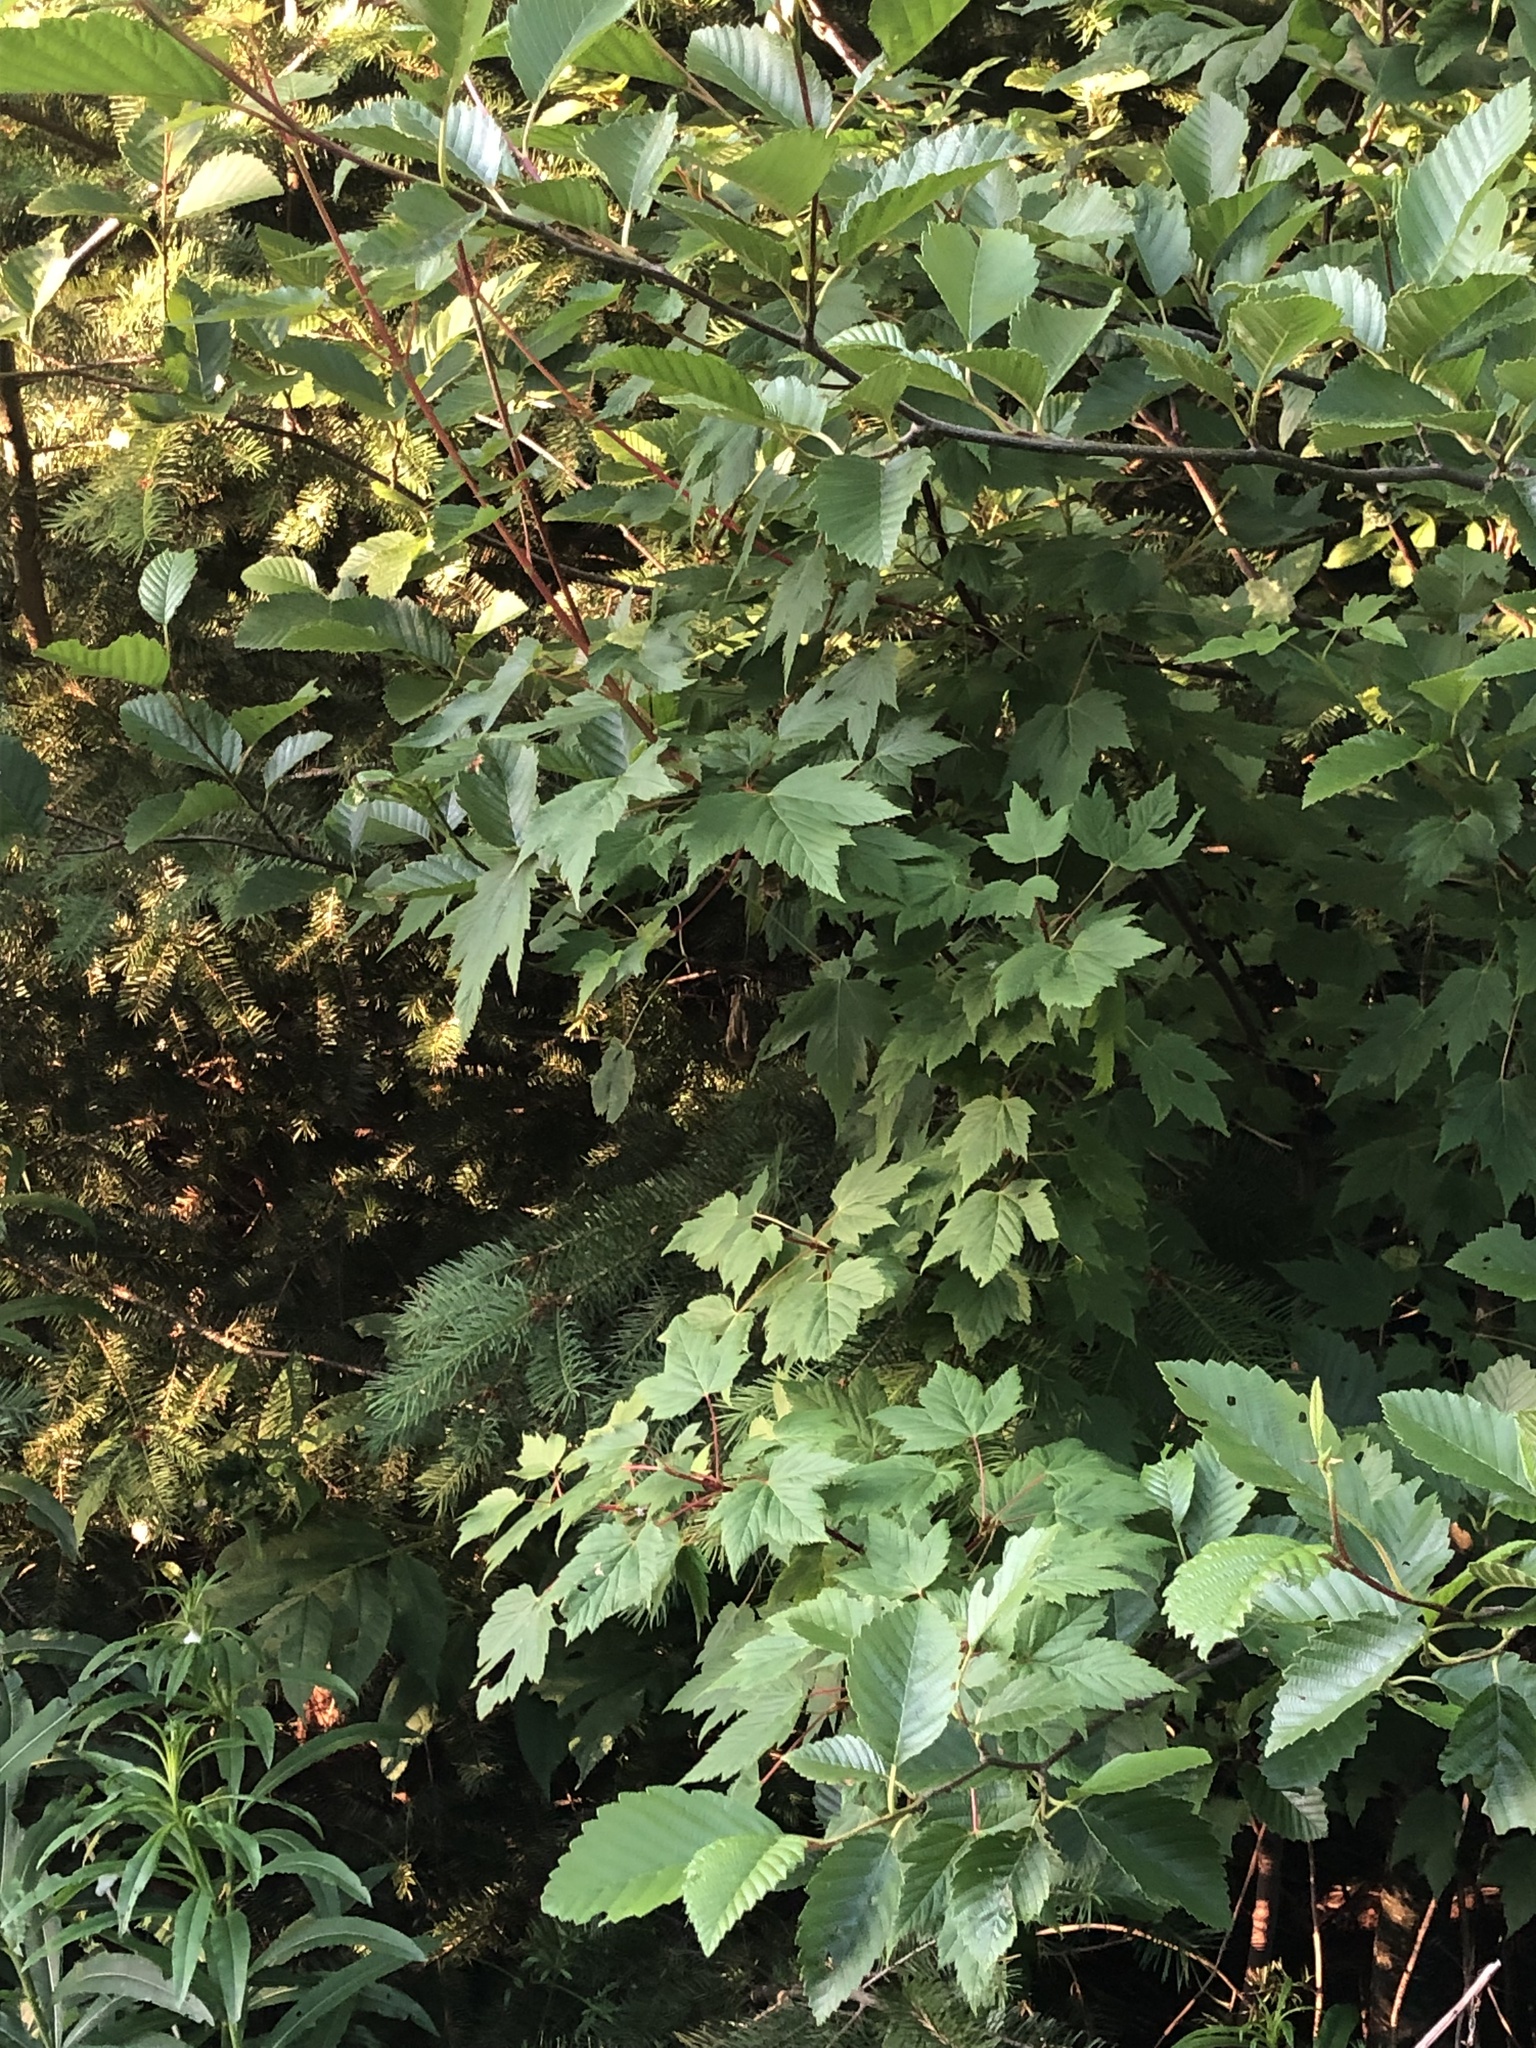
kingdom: Plantae
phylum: Tracheophyta
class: Magnoliopsida
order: Sapindales
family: Sapindaceae
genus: Acer
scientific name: Acer glabrum
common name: Rocky mountain maple
